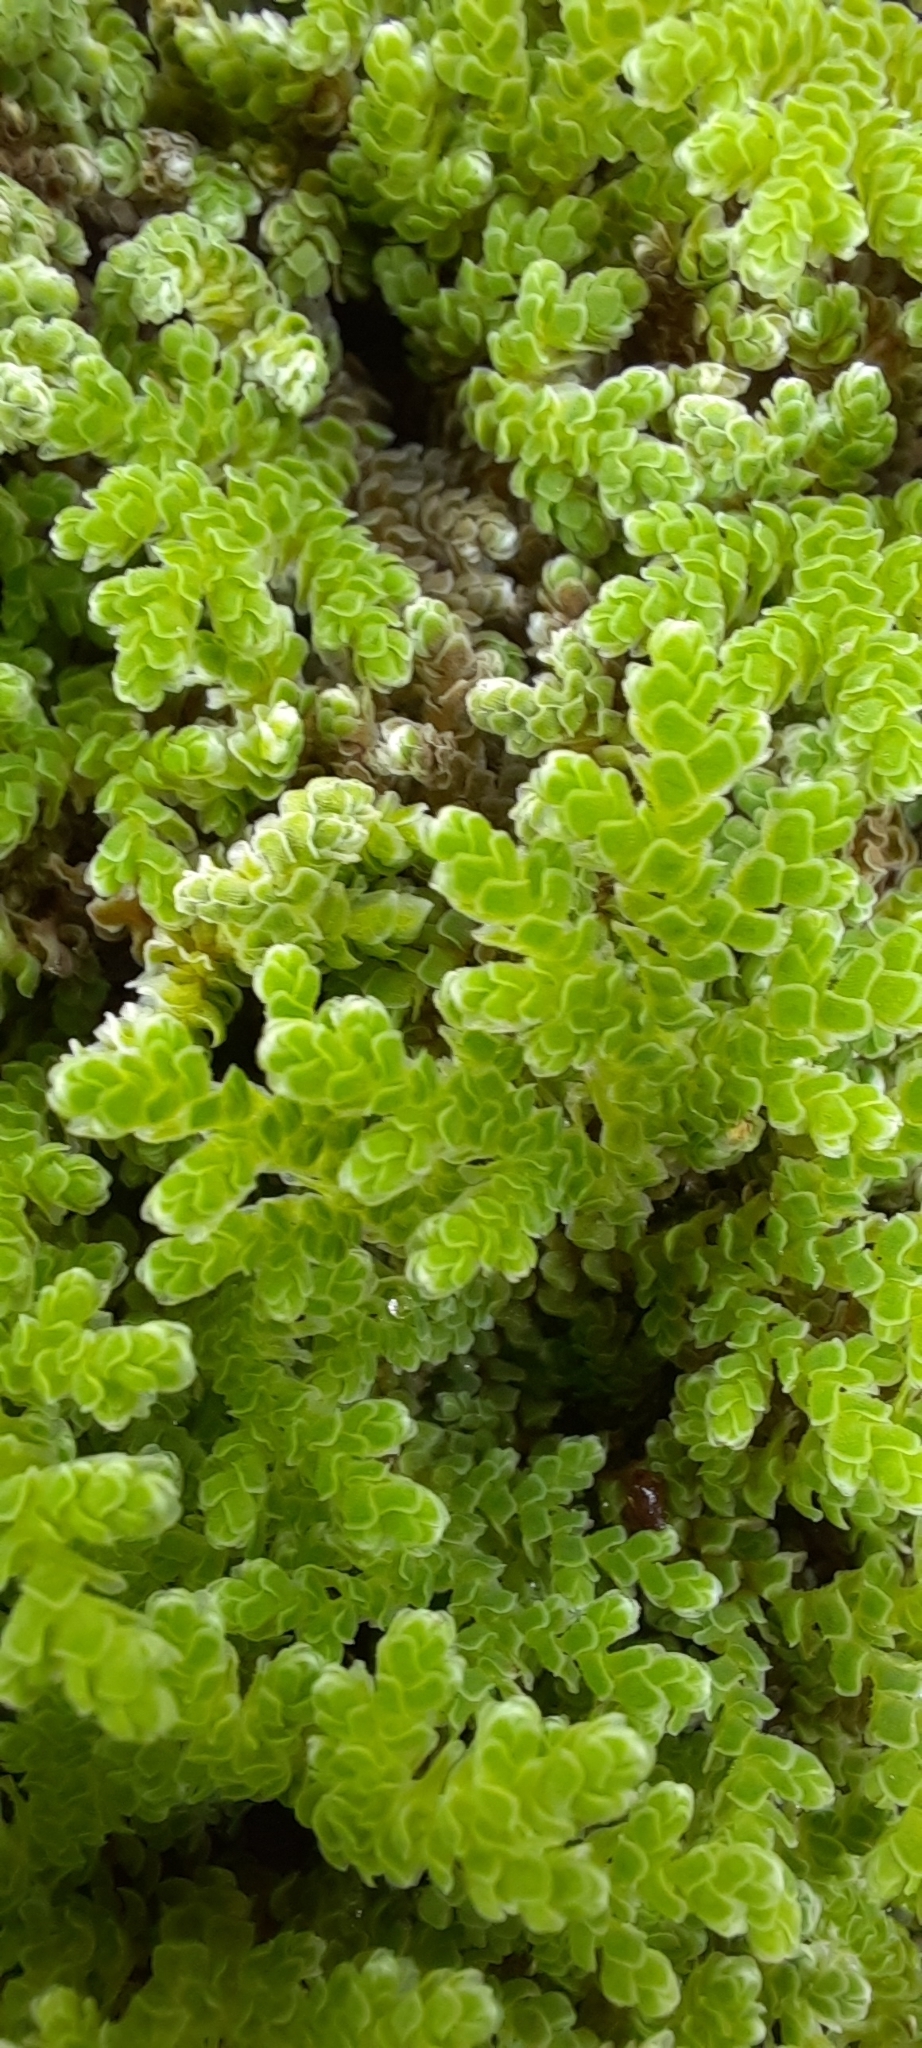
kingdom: Plantae
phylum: Tracheophyta
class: Polypodiopsida
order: Salviniales
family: Salviniaceae
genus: Azolla
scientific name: Azolla filiculoides
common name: Water fern
